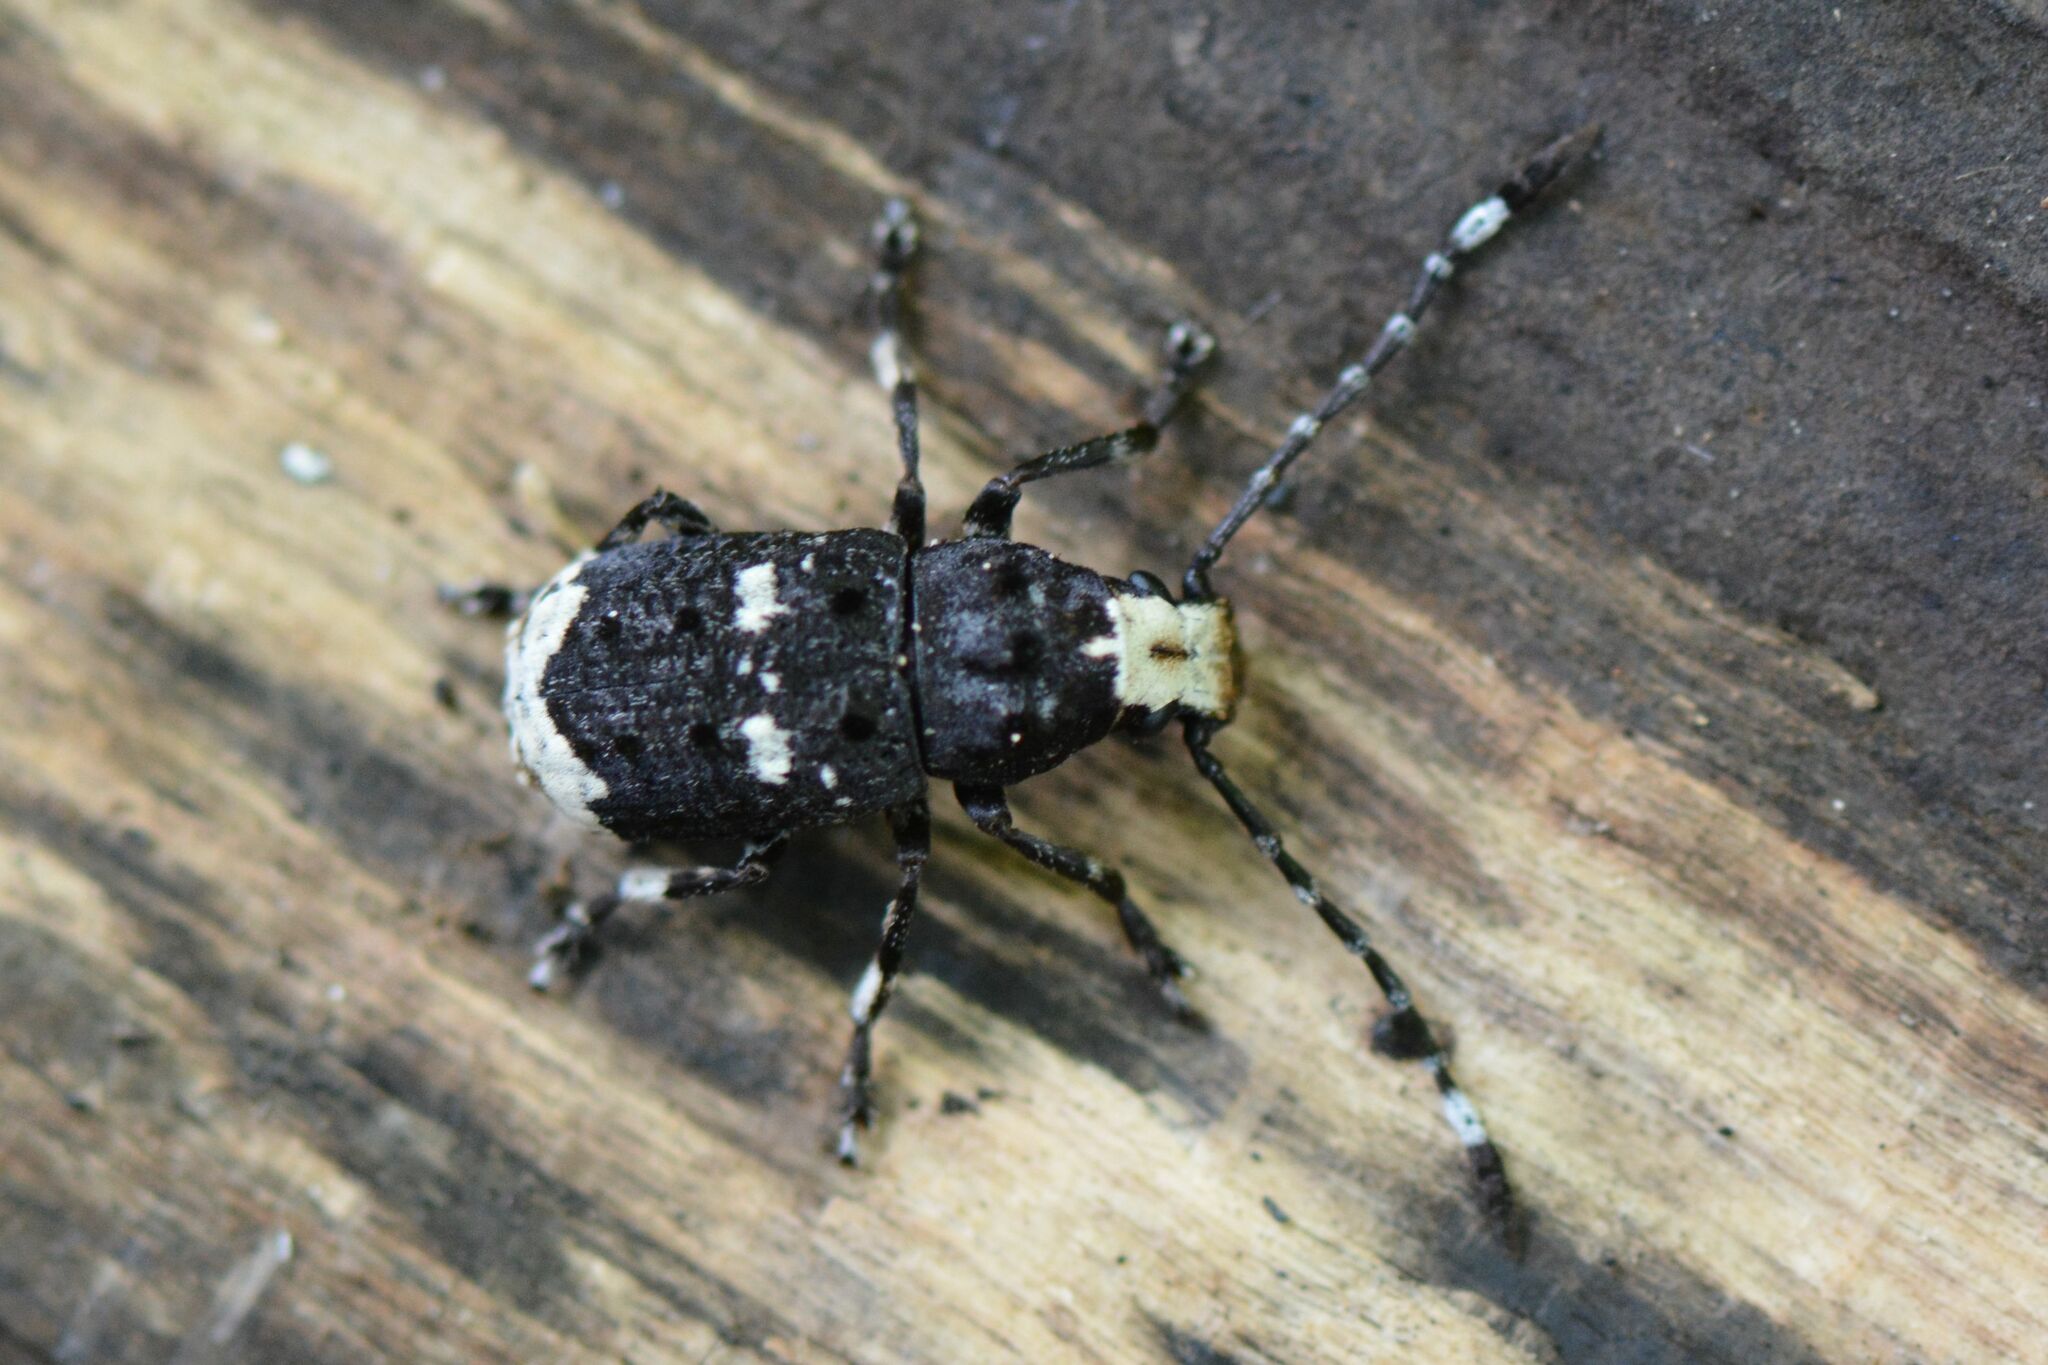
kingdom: Animalia
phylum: Arthropoda
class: Insecta
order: Coleoptera
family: Anthribidae
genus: Platystomos
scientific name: Platystomos albinus
